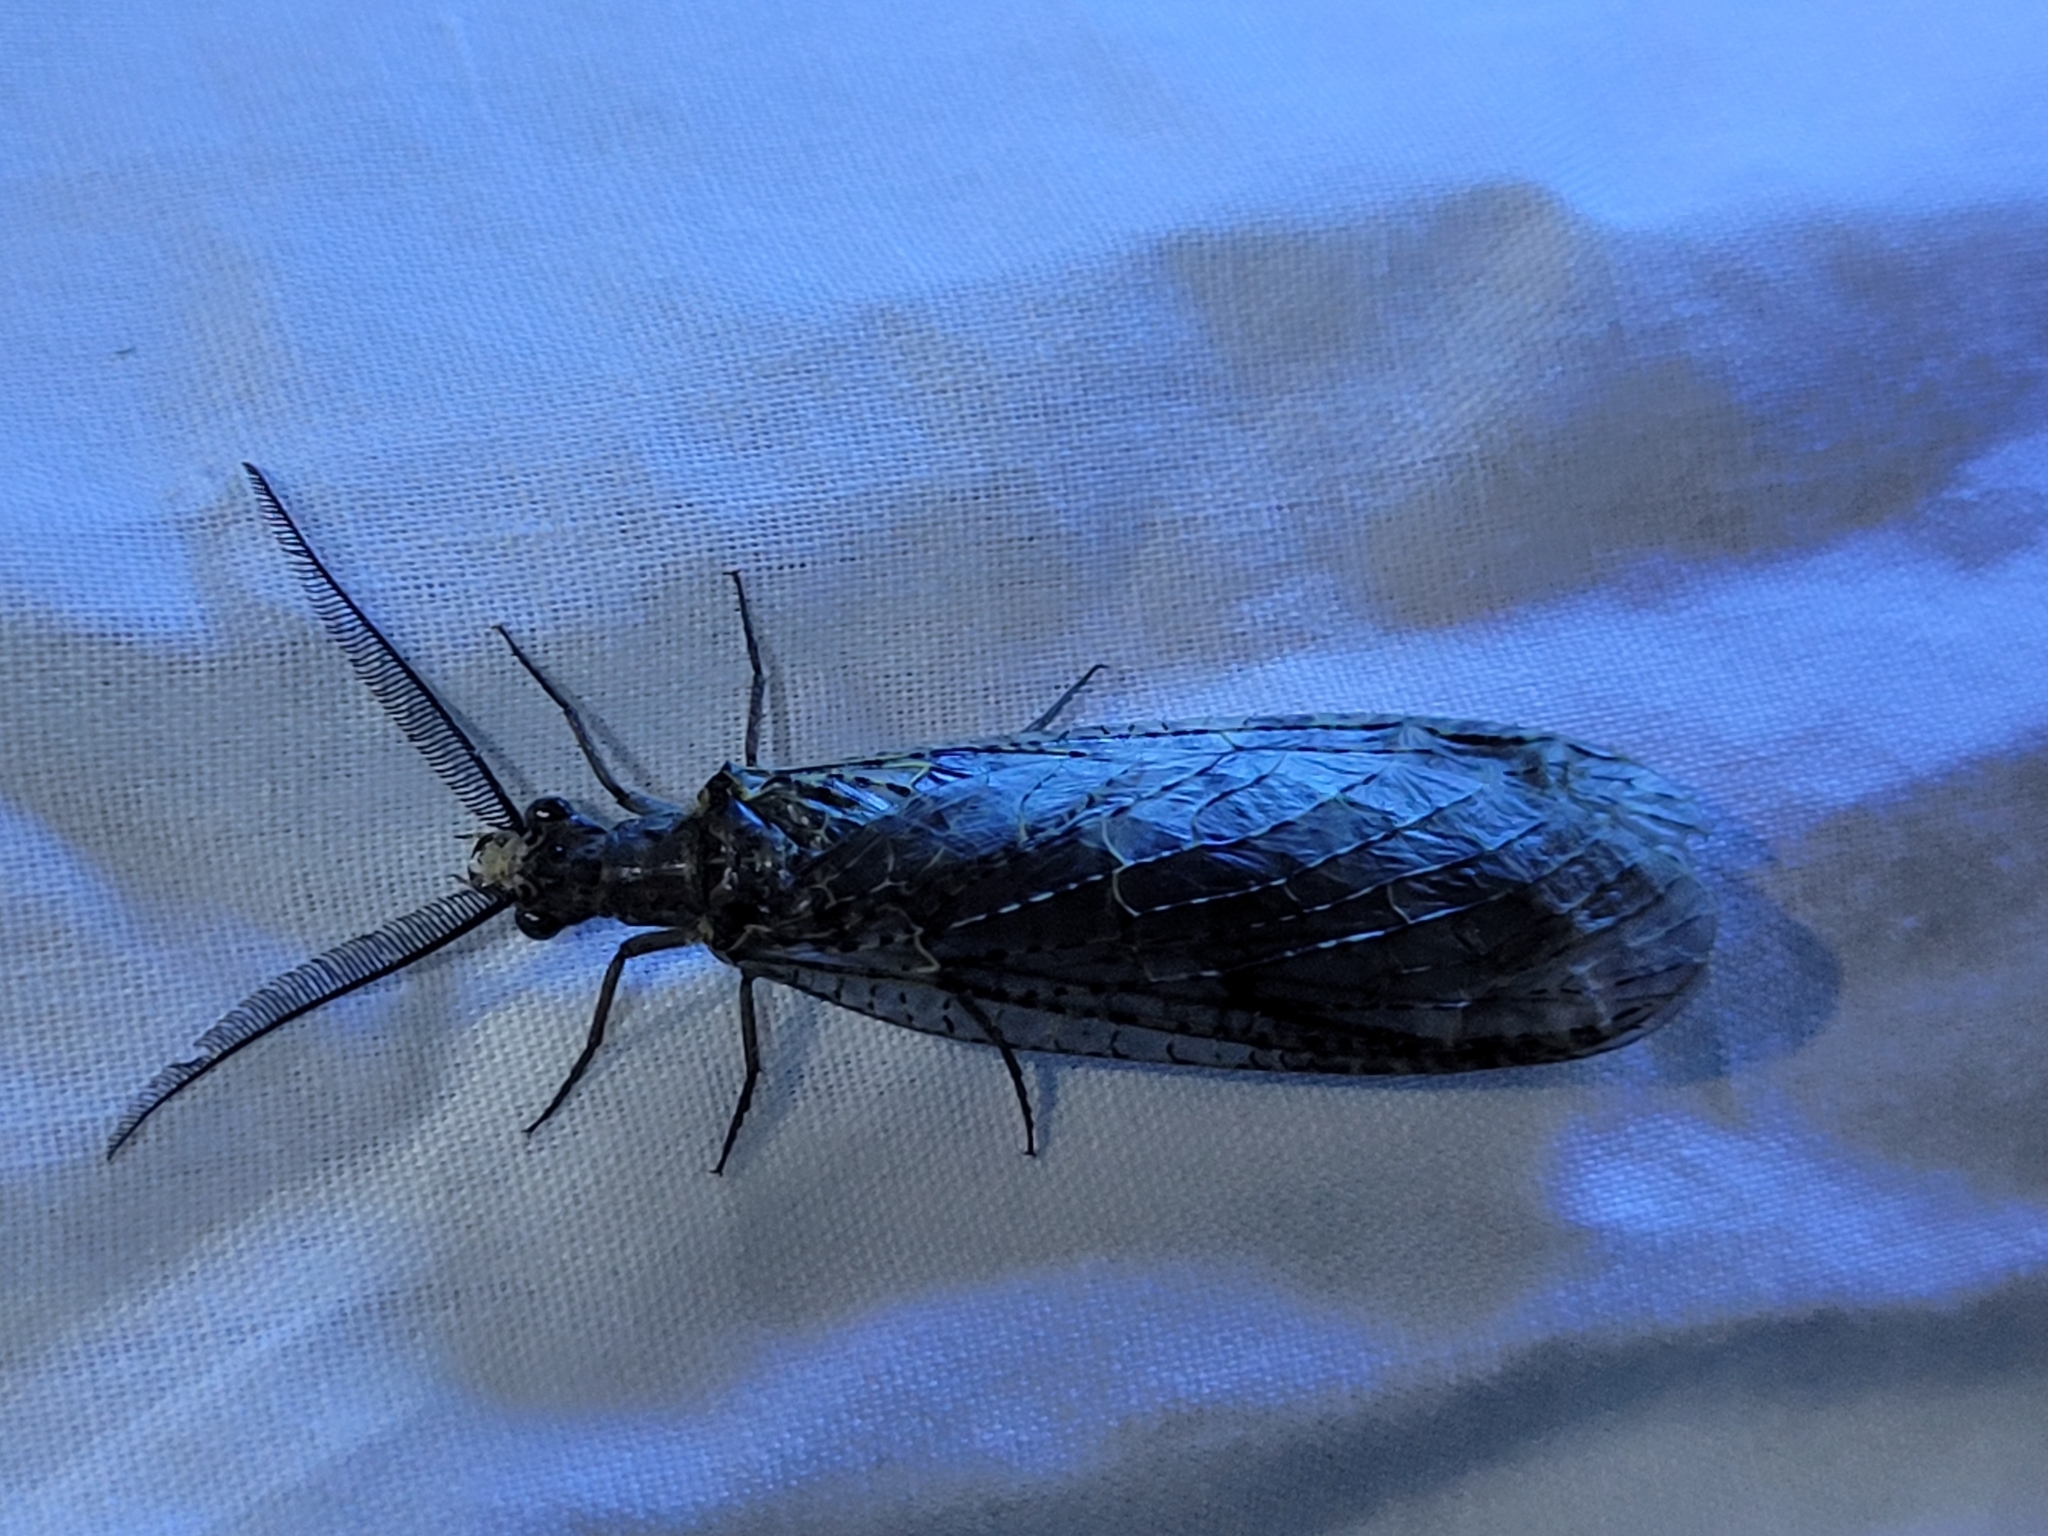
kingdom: Animalia
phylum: Arthropoda
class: Insecta
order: Megaloptera
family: Corydalidae
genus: Chauliodes
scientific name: Chauliodes rastricornis
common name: Spring fishfly
